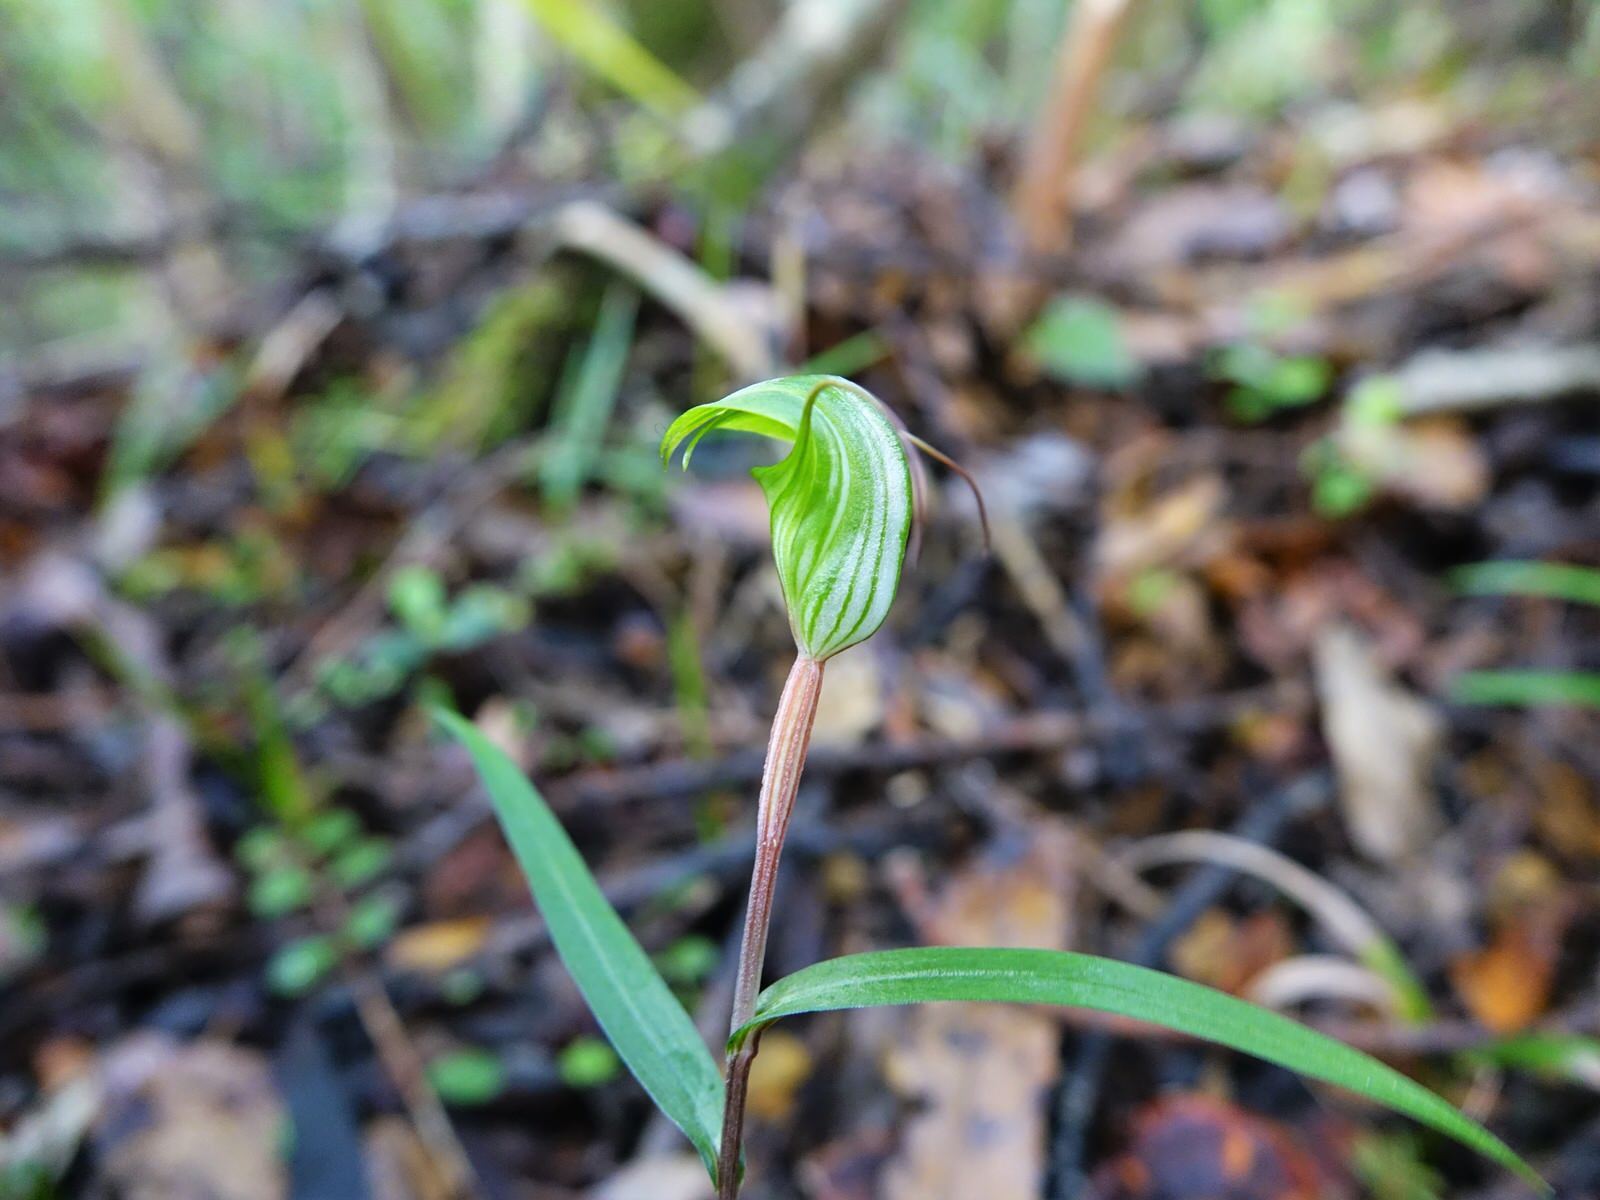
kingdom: Plantae
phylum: Tracheophyta
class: Liliopsida
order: Asparagales
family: Orchidaceae
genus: Pterostylis
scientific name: Pterostylis brumalis
